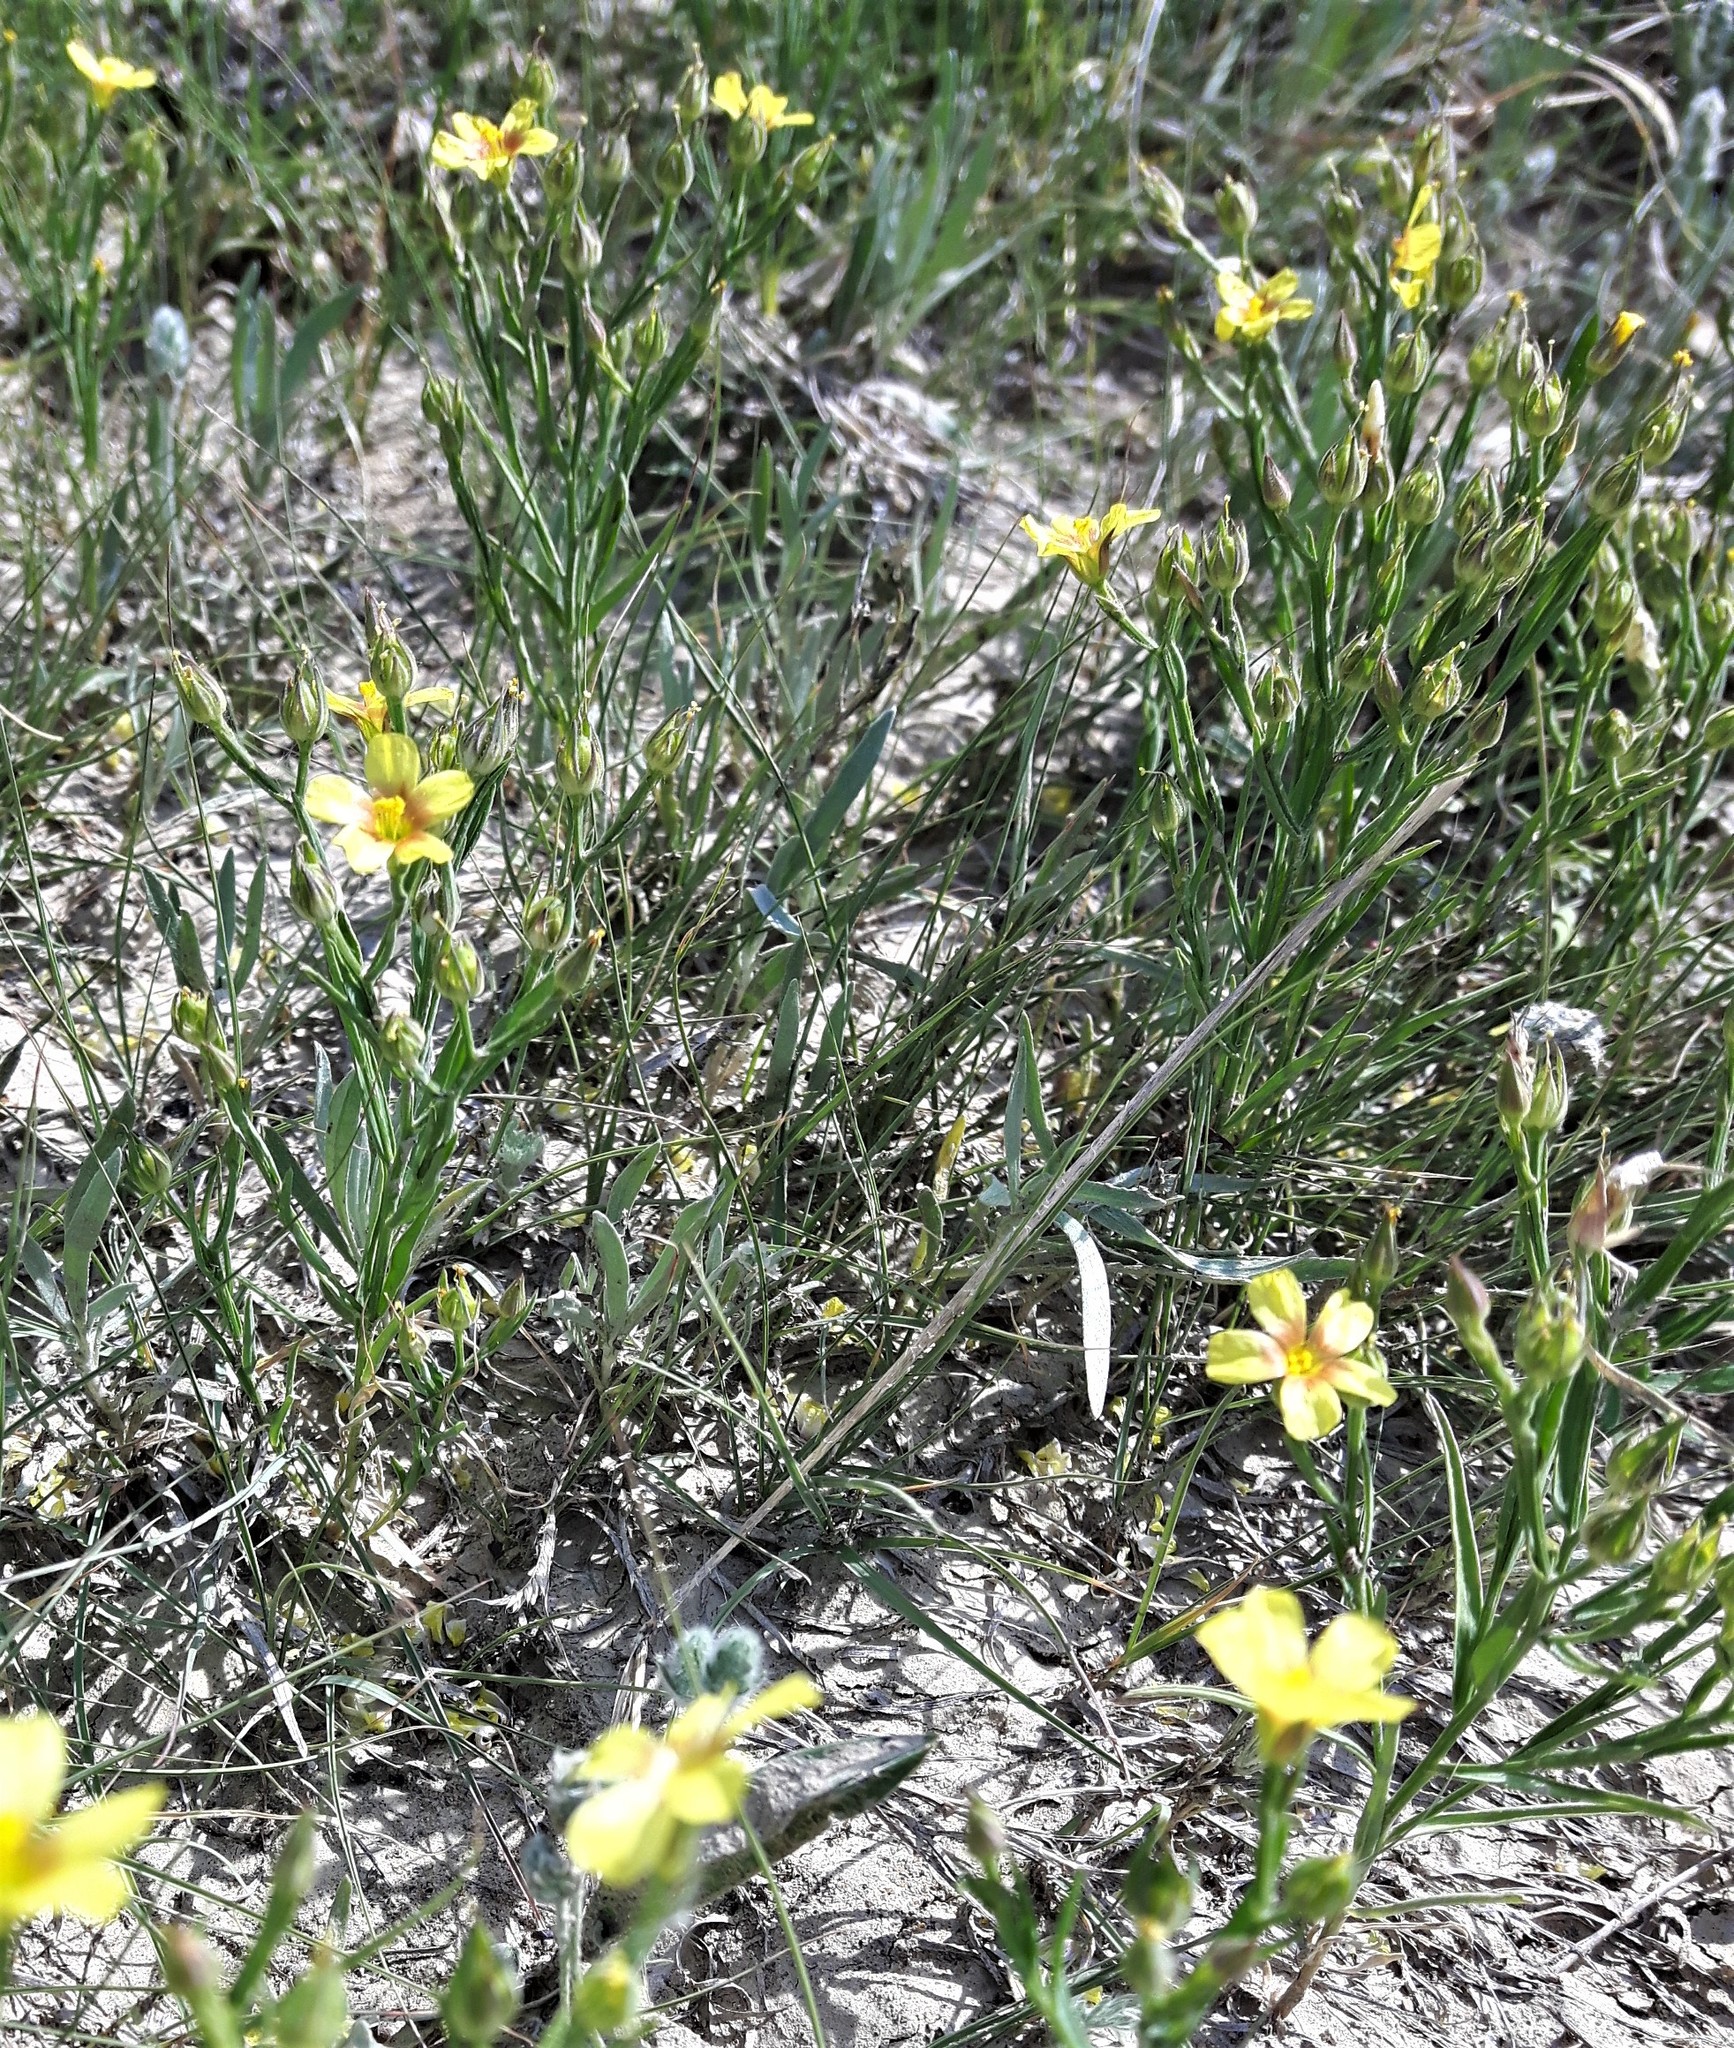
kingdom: Plantae
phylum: Tracheophyta
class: Magnoliopsida
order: Malpighiales
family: Linaceae
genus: Linum
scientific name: Linum compactum
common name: Wyoming flax
